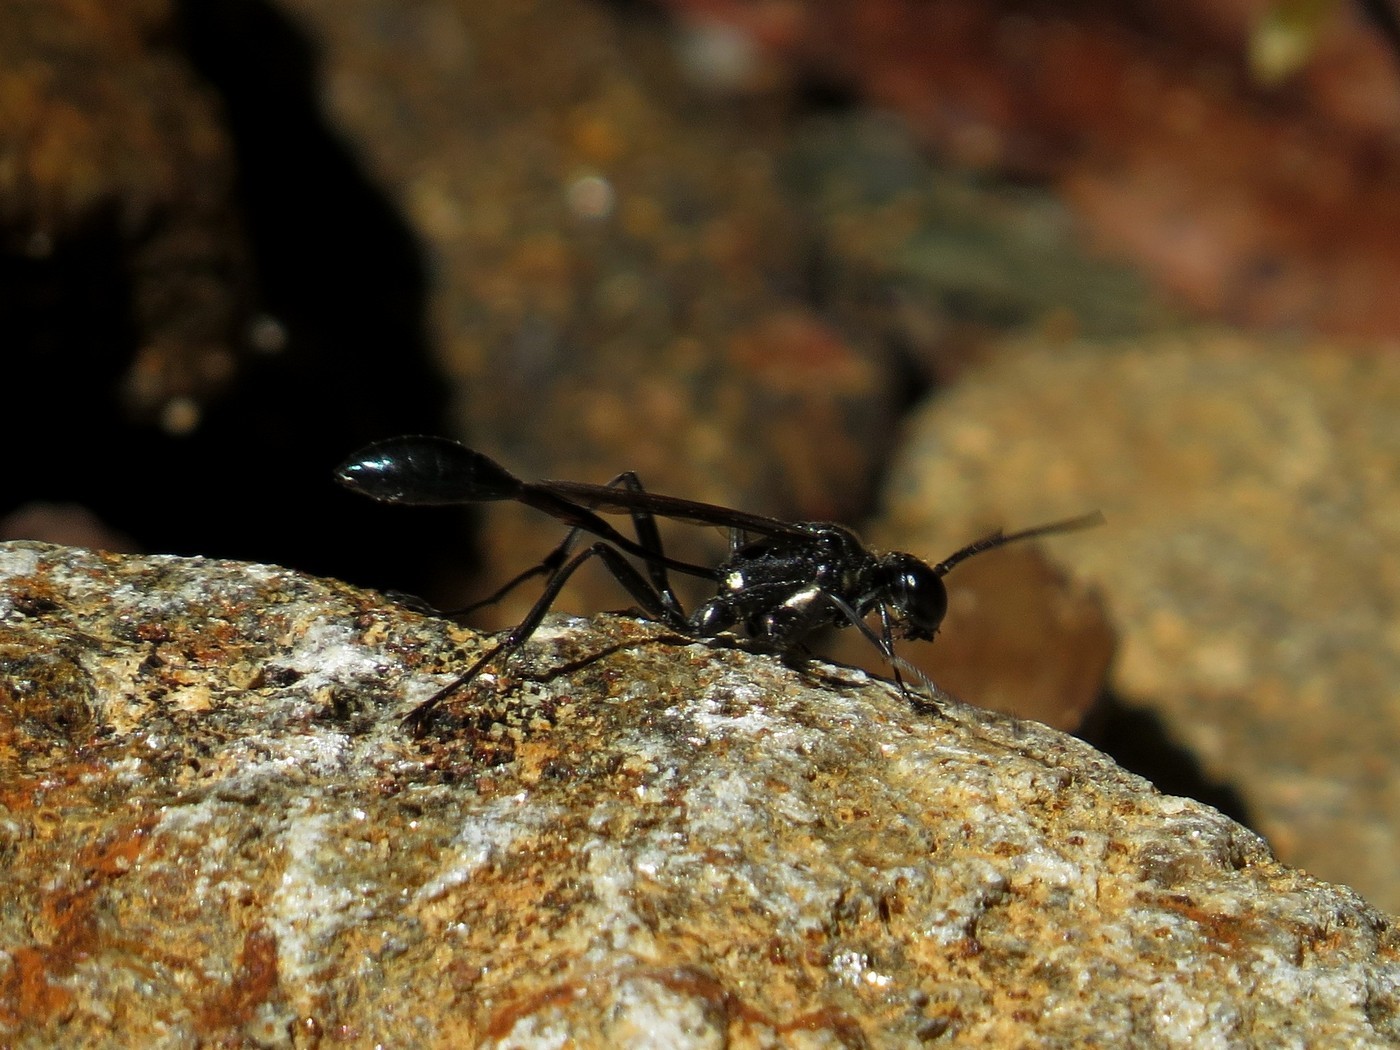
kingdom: Animalia
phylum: Arthropoda
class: Insecta
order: Hymenoptera
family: Sphecidae
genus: Eremnophila
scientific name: Eremnophila aureonotata
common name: Gold-marked thread-waisted wasp
